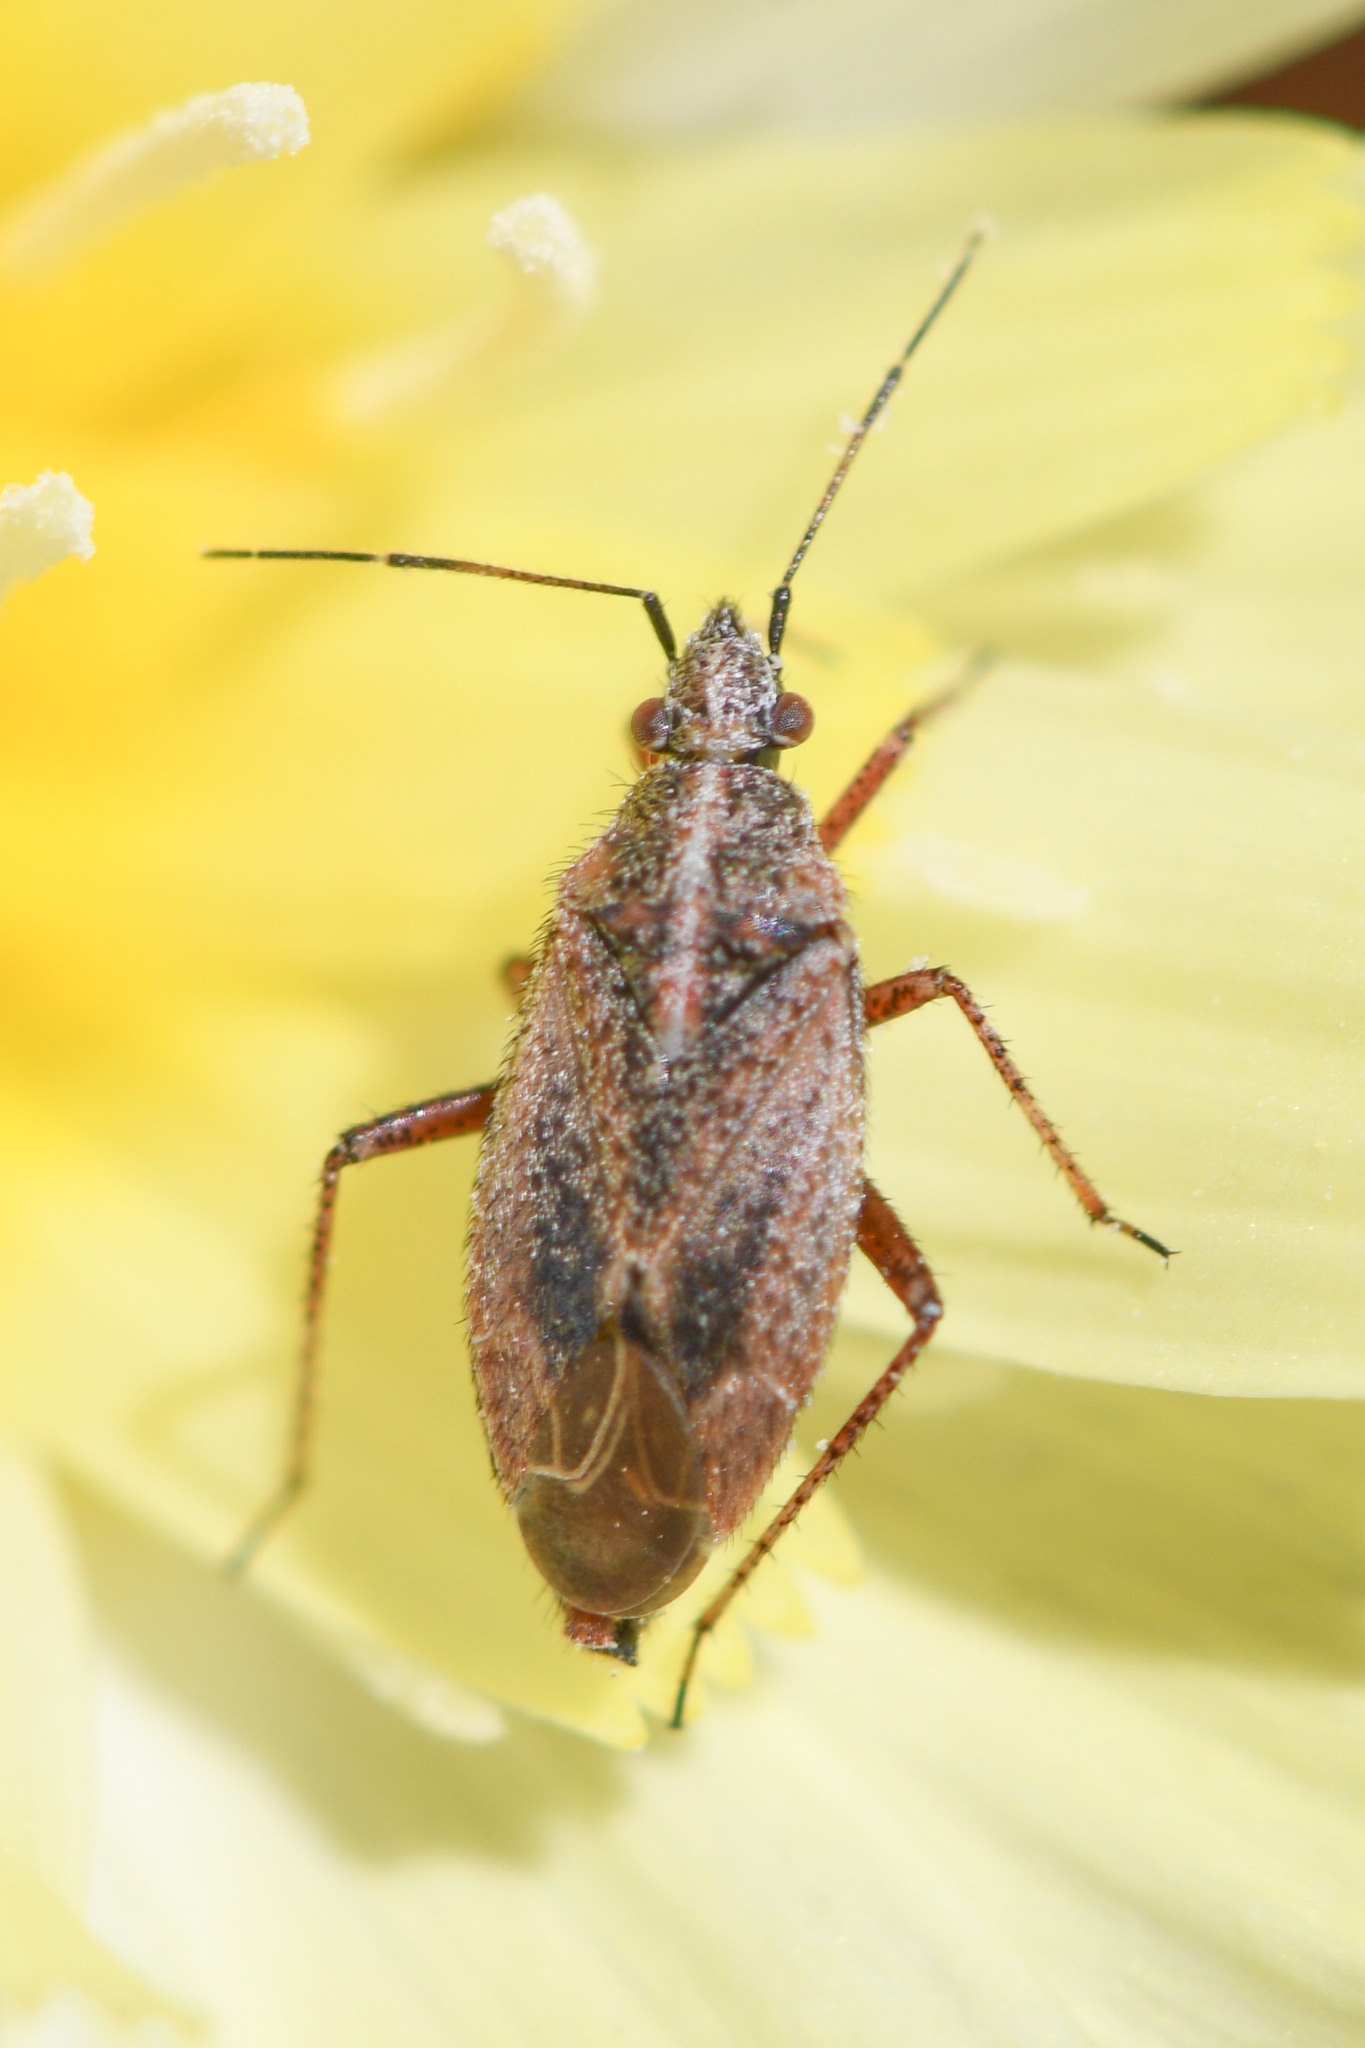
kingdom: Animalia
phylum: Arthropoda
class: Insecta
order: Hemiptera
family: Miridae
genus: Hoplomachidea
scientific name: Hoplomachidea consors
